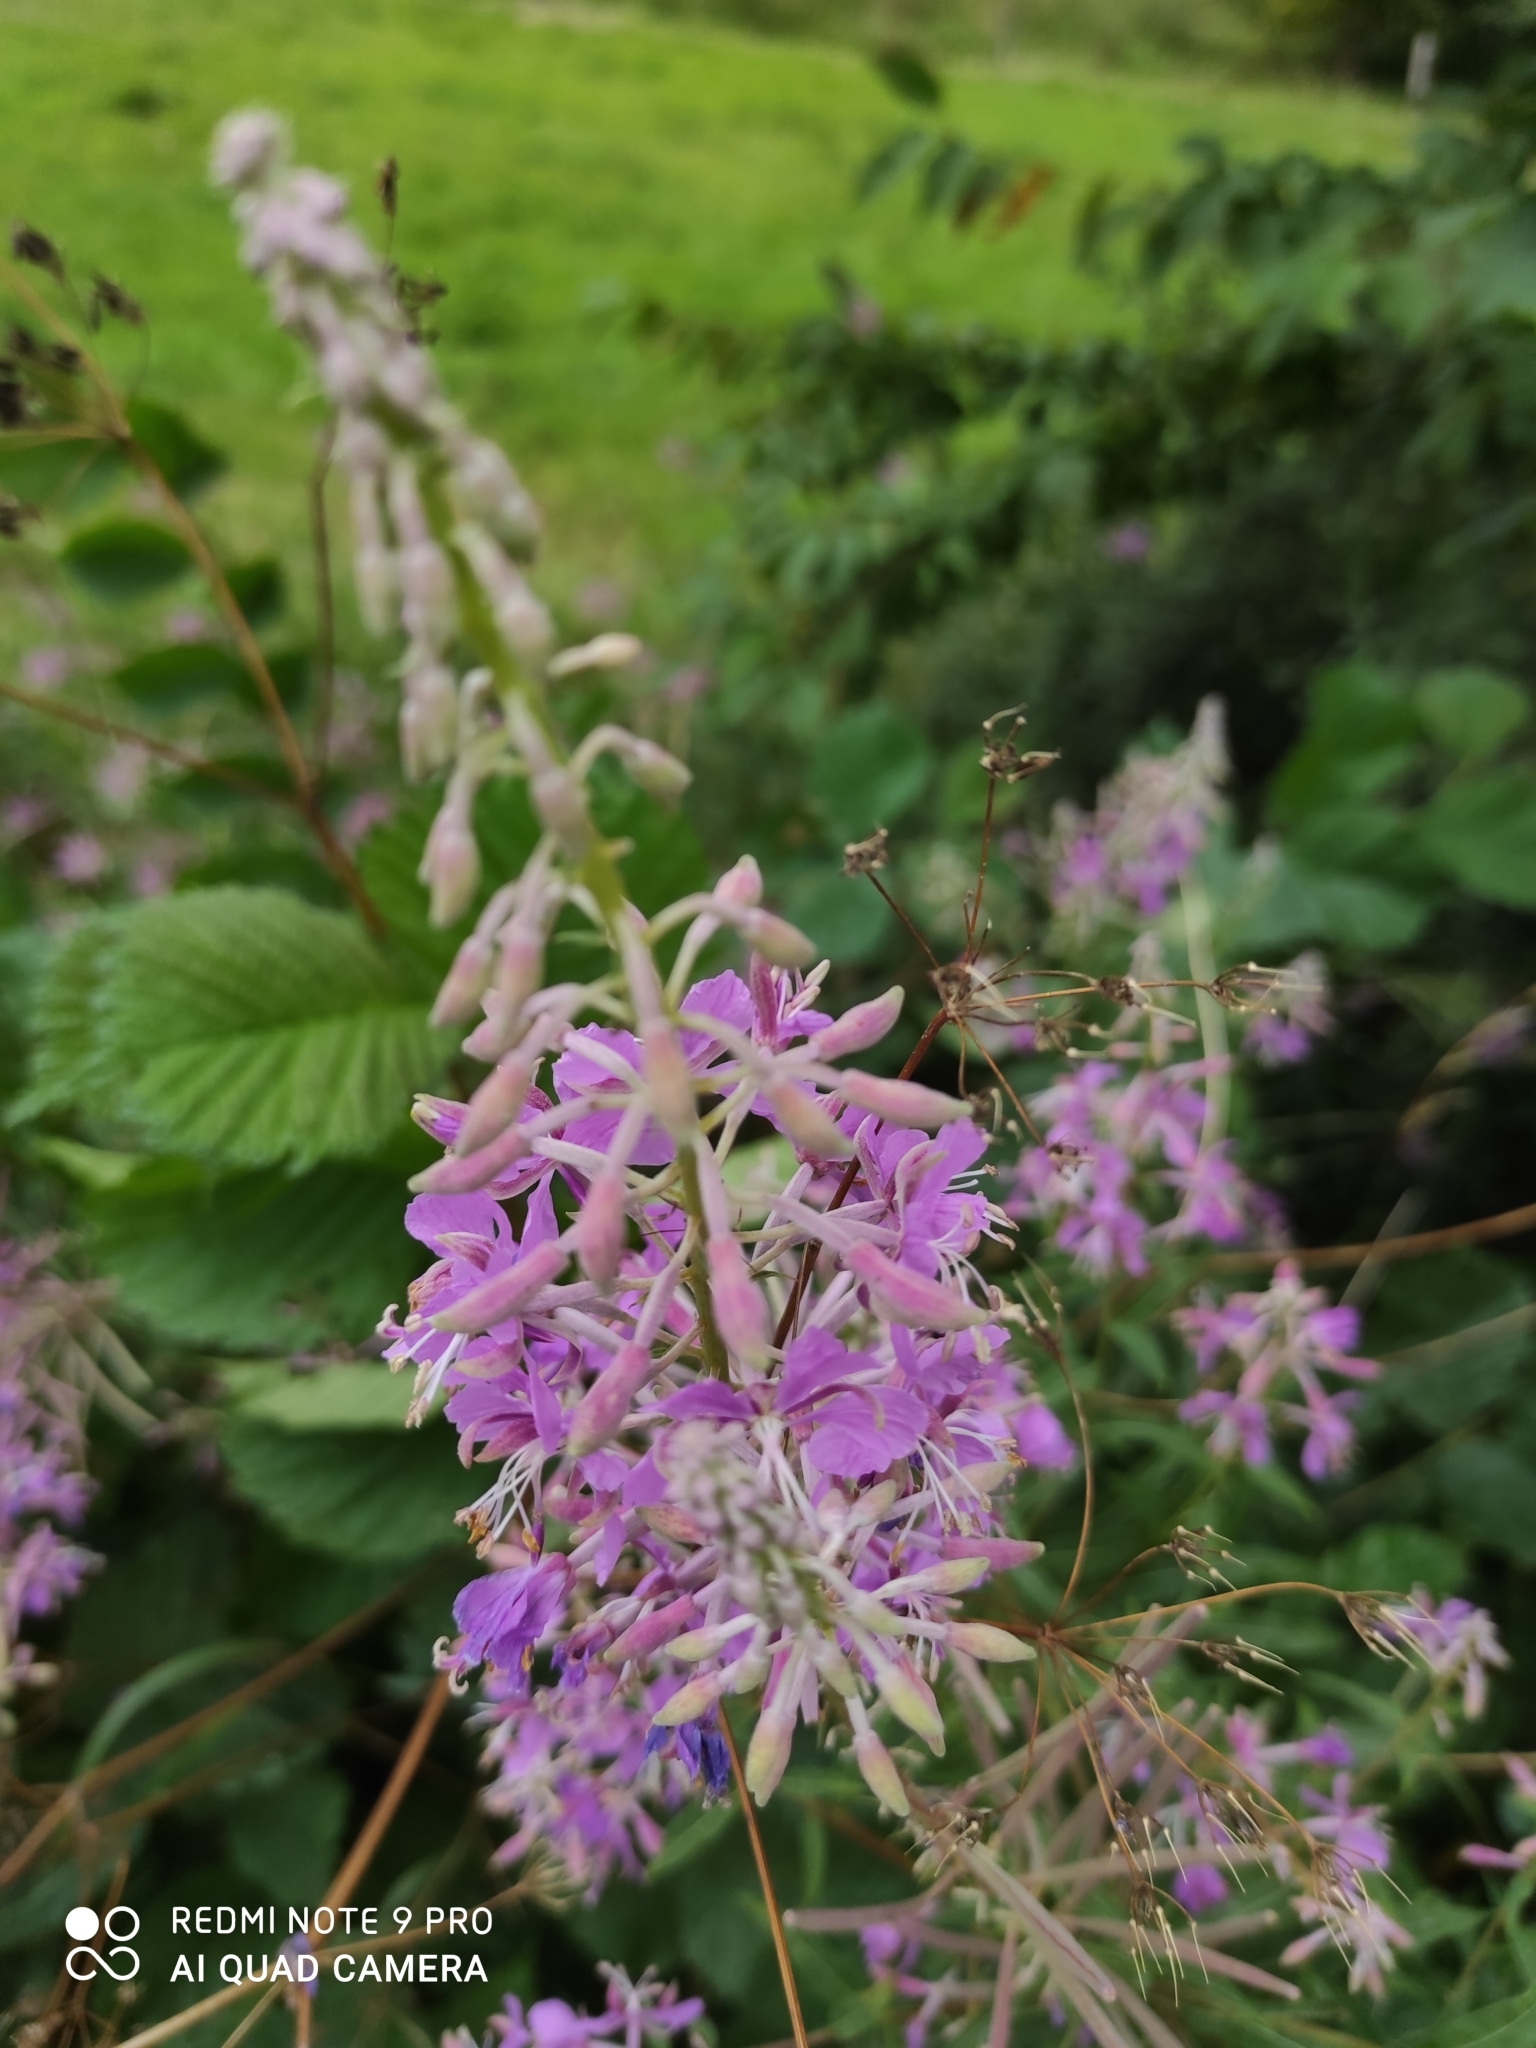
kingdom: Plantae
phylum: Tracheophyta
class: Magnoliopsida
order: Myrtales
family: Onagraceae
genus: Chamaenerion
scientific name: Chamaenerion angustifolium
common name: Fireweed
